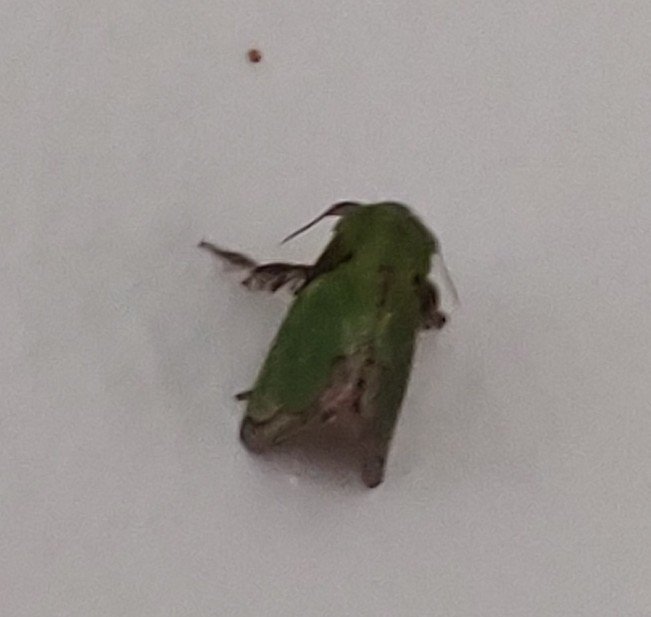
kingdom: Animalia
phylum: Arthropoda
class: Insecta
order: Lepidoptera
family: Limacodidae
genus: Parasa
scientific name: Parasa herbina
